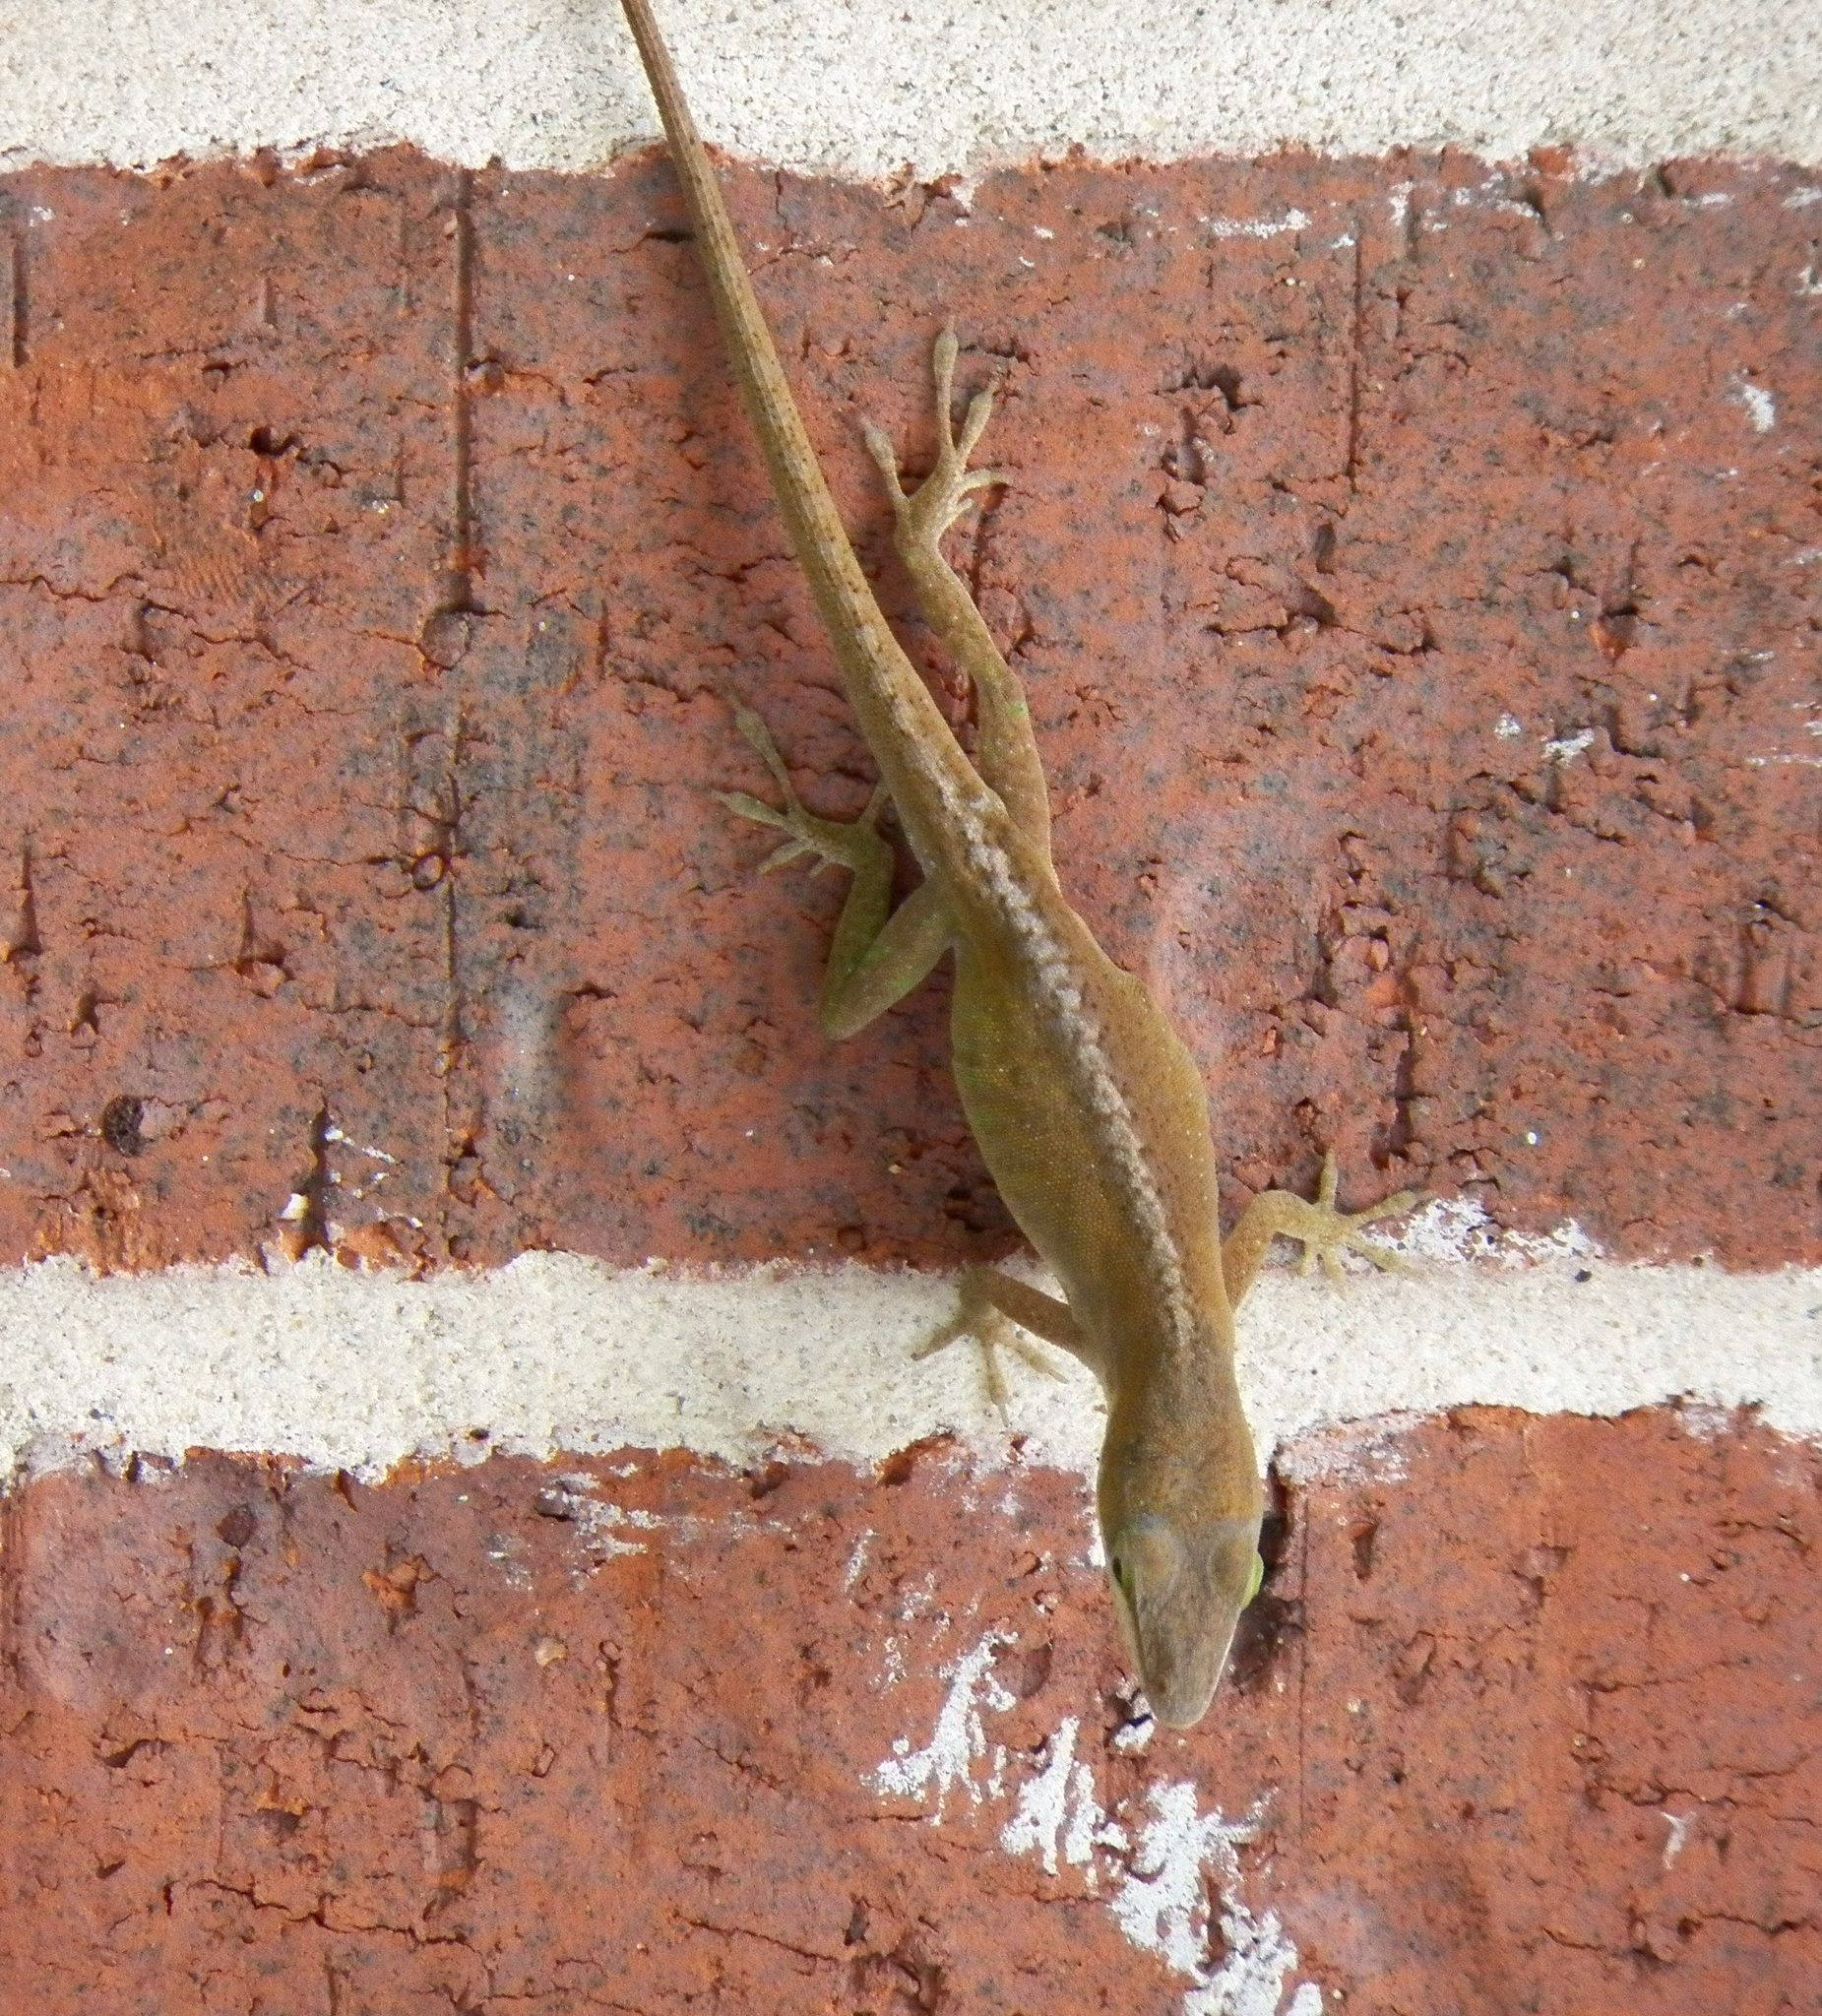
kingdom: Animalia
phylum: Chordata
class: Squamata
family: Dactyloidae
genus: Anolis
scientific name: Anolis carolinensis
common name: Green anole
